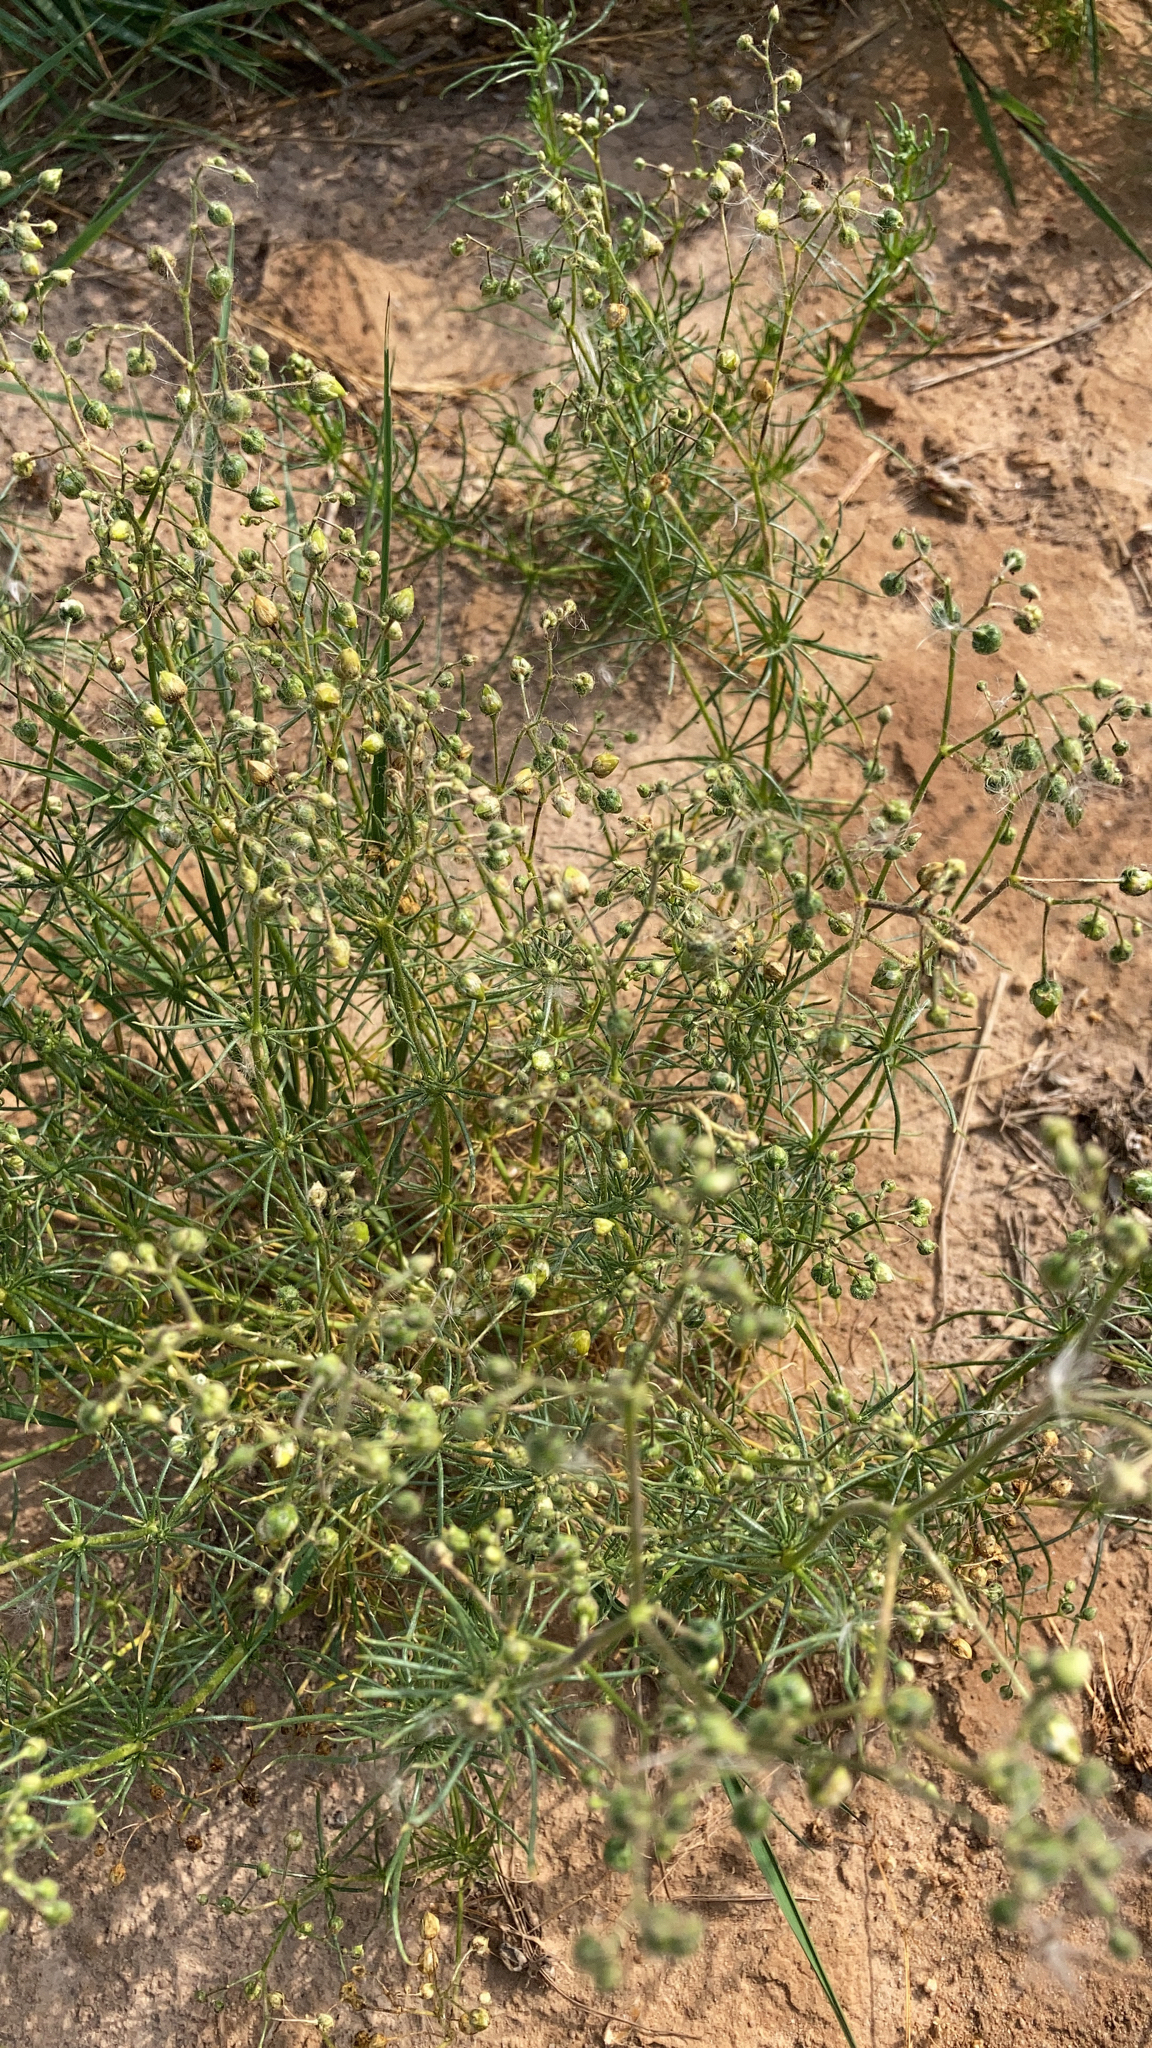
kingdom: Plantae
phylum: Tracheophyta
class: Magnoliopsida
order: Caryophyllales
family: Caryophyllaceae
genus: Spergula
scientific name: Spergula arvensis
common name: Corn spurrey
